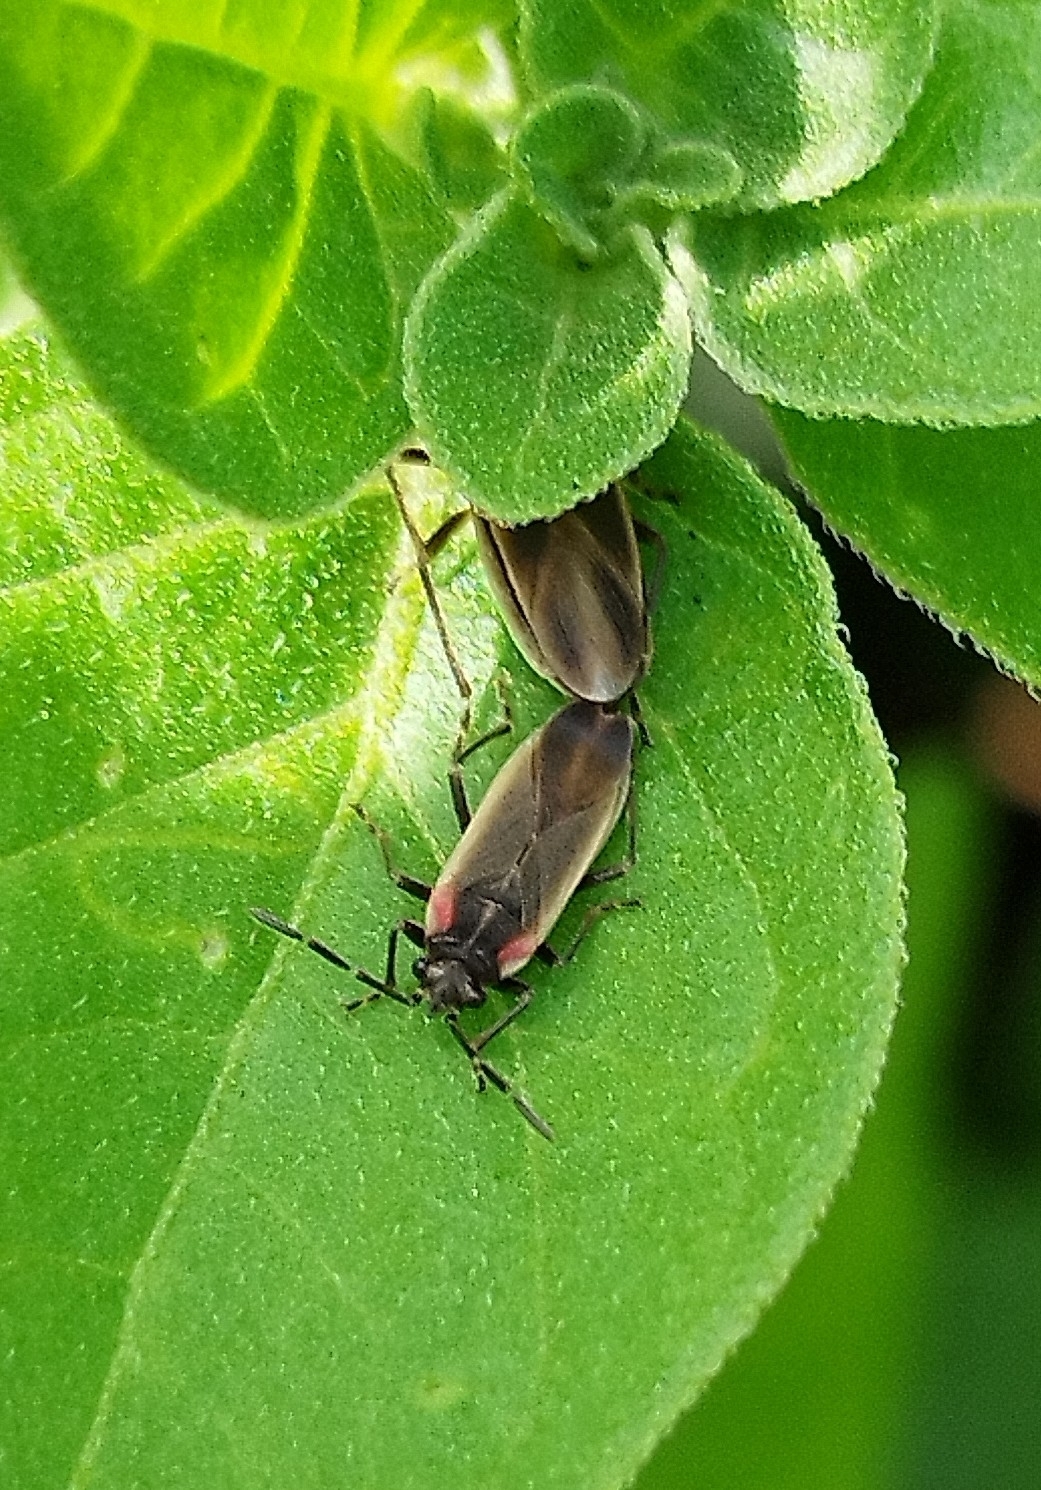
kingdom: Animalia
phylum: Arthropoda
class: Insecta
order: Hemiptera
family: Lygaeidae
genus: Acroleucus
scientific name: Acroleucus coxalis
